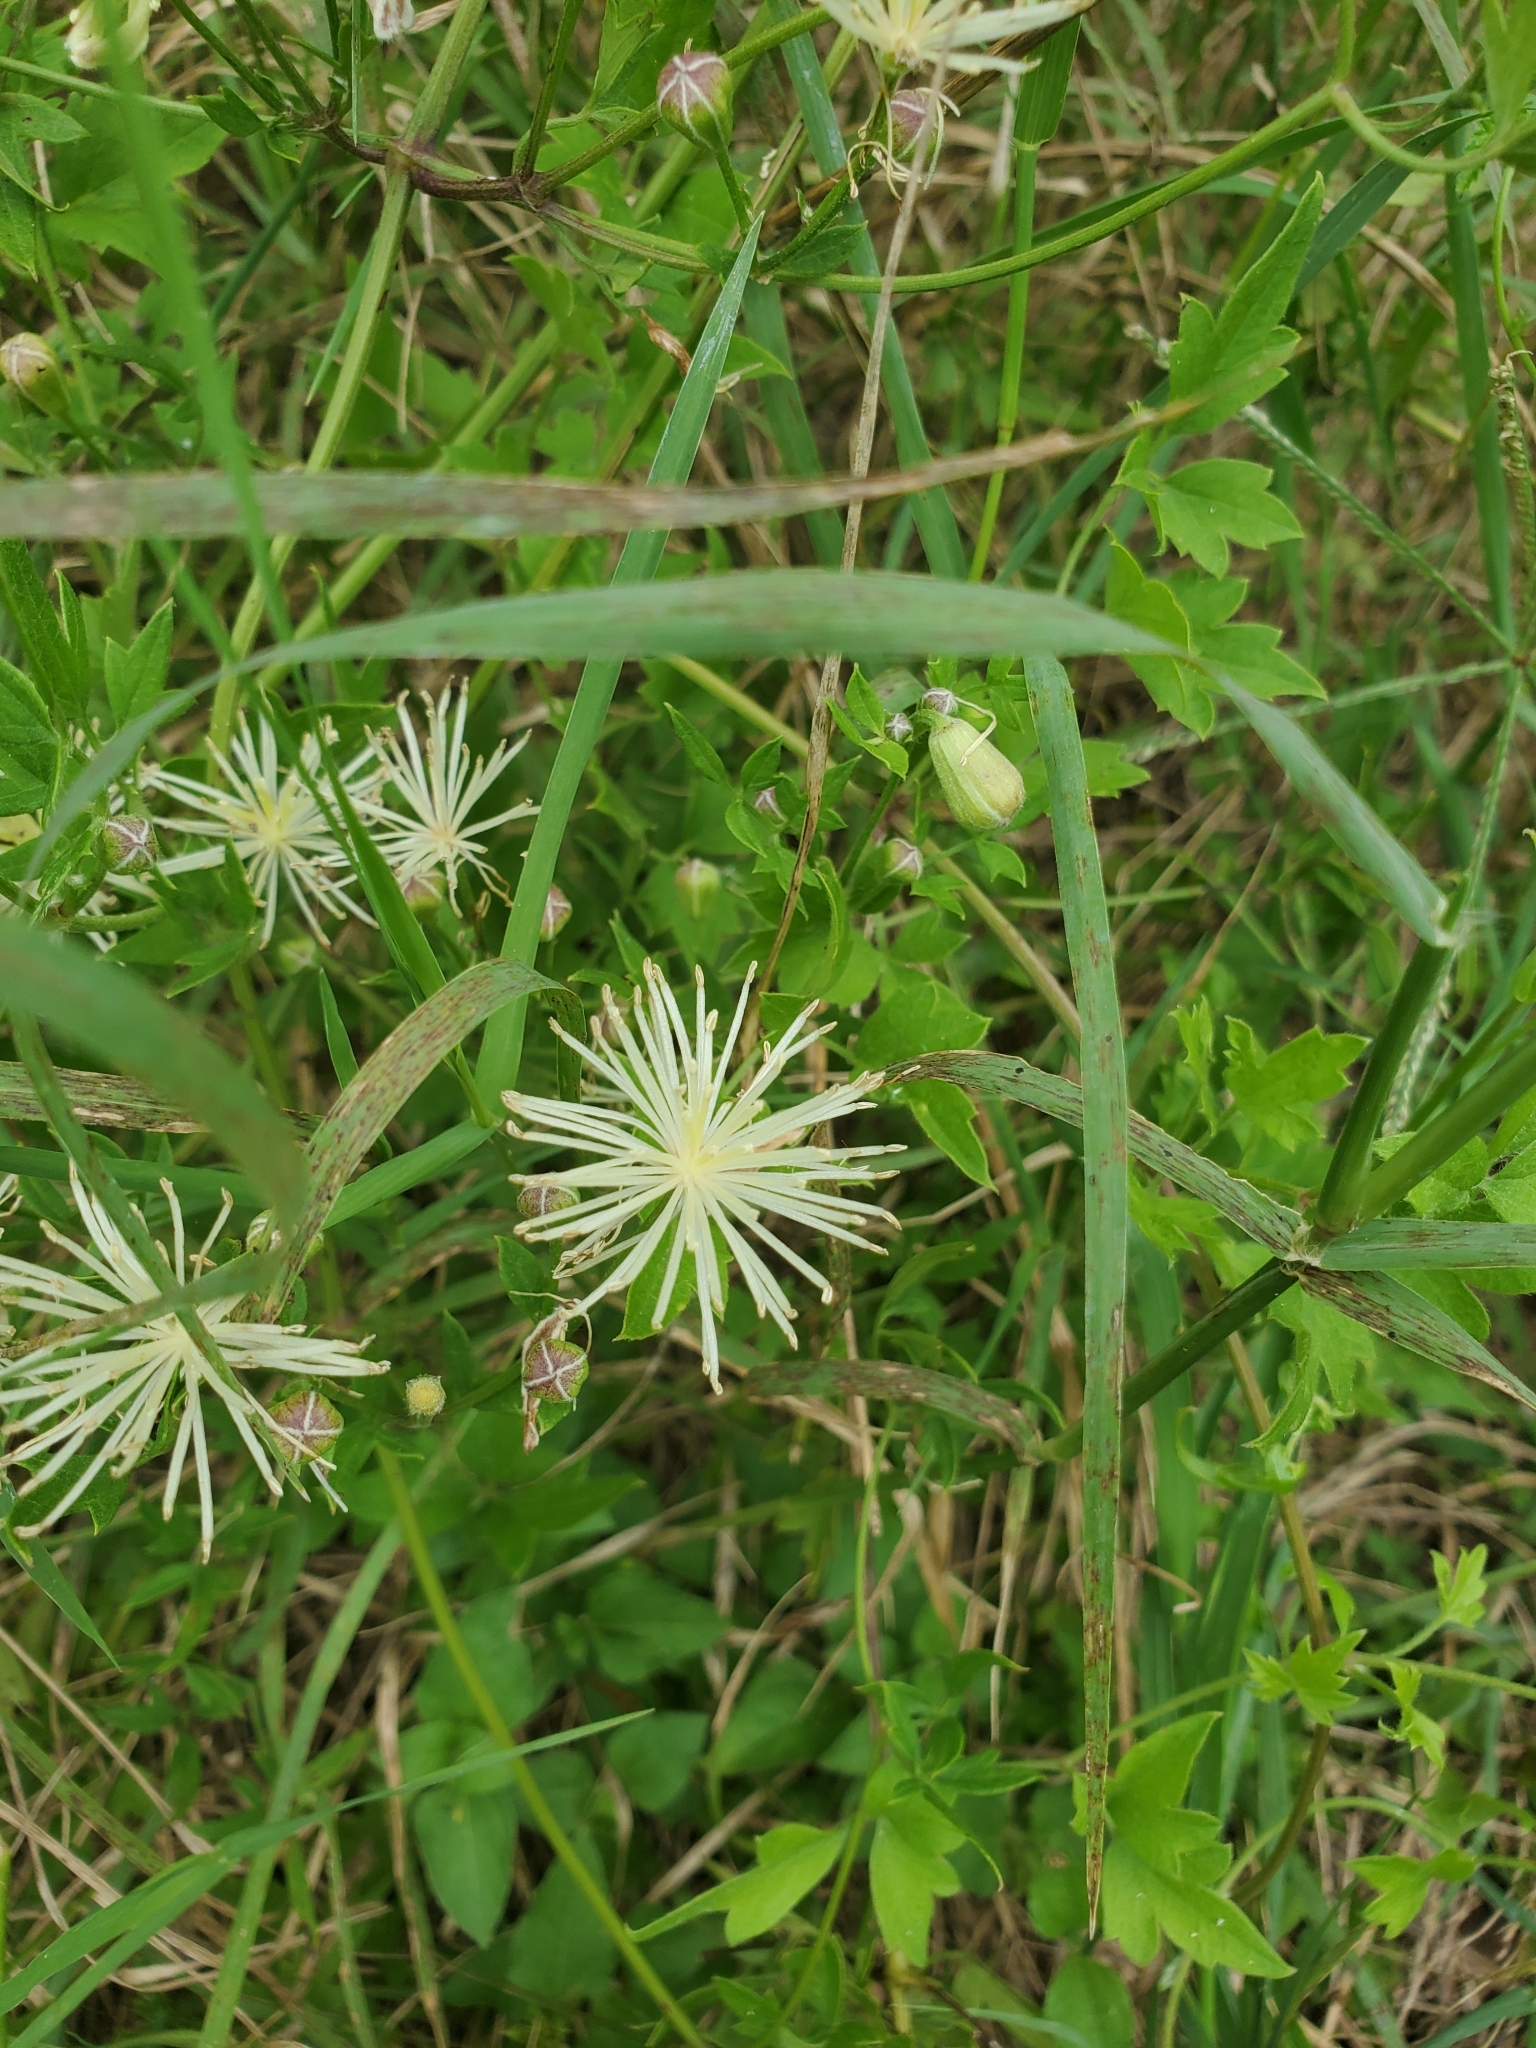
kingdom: Plantae
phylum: Tracheophyta
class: Magnoliopsida
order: Ranunculales
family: Ranunculaceae
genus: Clematis
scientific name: Clematis drummondii
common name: Texas virgin's bower
